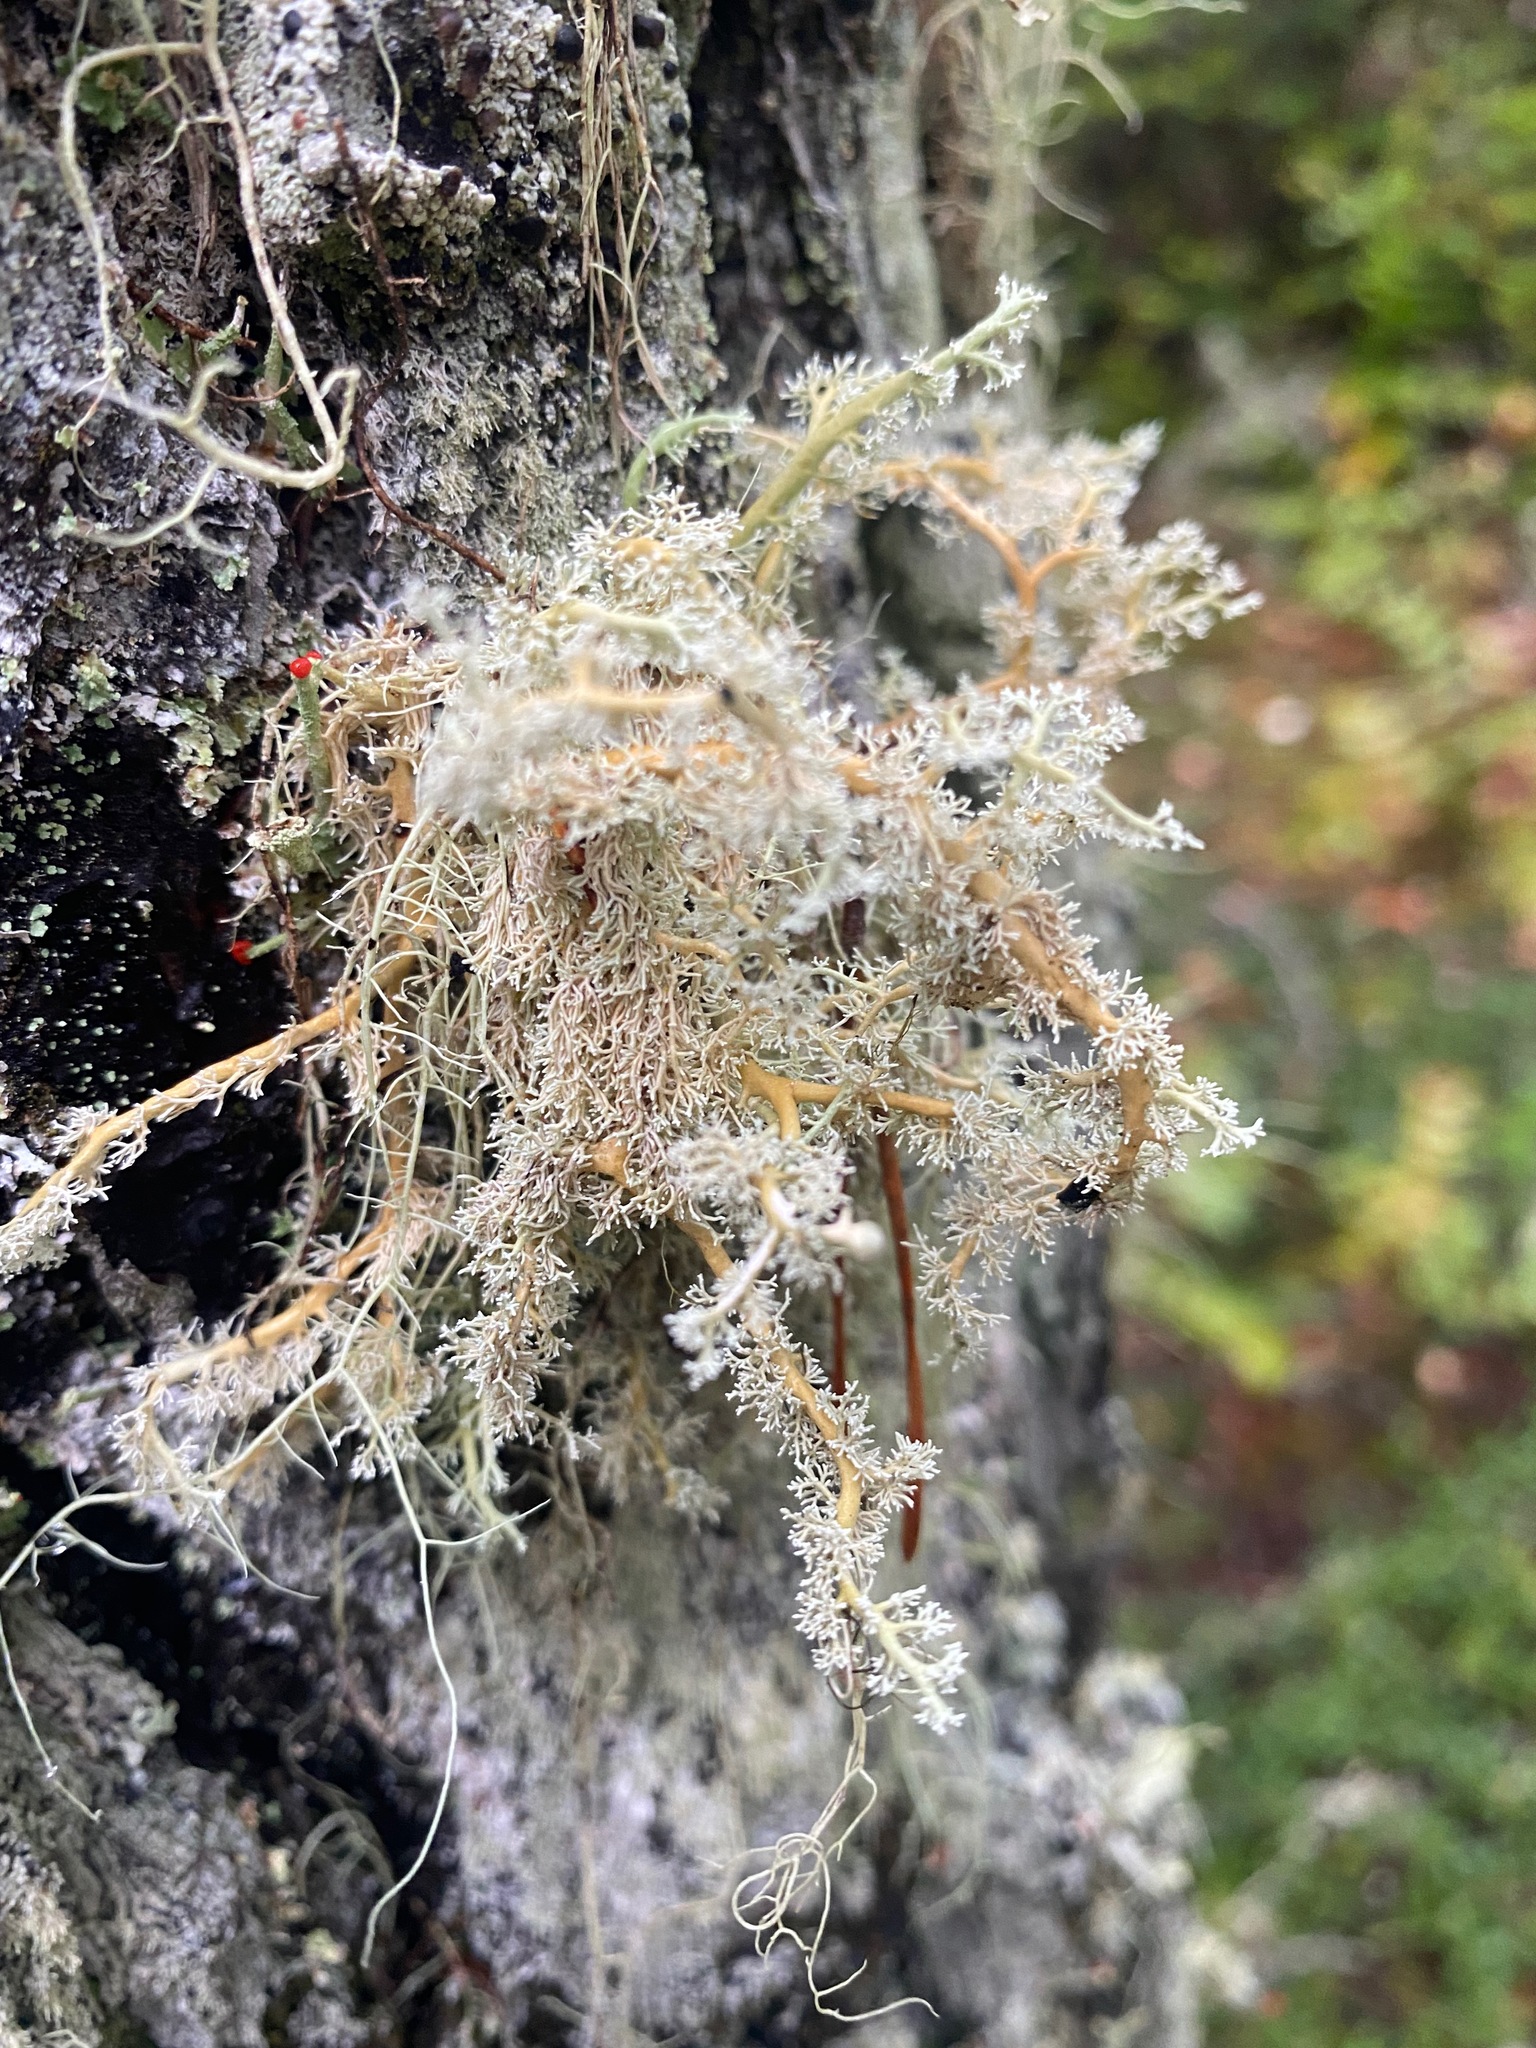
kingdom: Fungi
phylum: Ascomycota
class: Lecanoromycetes
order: Lecanorales
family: Sphaerophoraceae
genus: Sphaerophorus
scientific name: Sphaerophorus globosus
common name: Globe ball lichen
